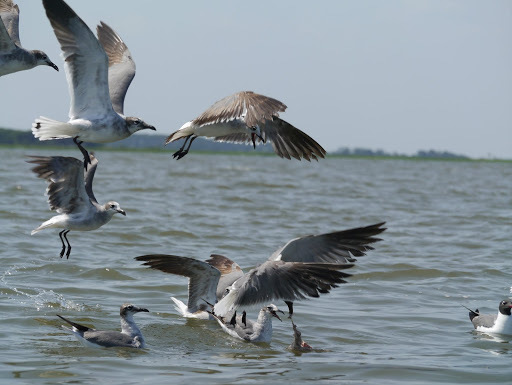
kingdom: Animalia
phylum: Chordata
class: Aves
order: Charadriiformes
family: Laridae
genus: Leucophaeus
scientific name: Leucophaeus atricilla
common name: Laughing gull
